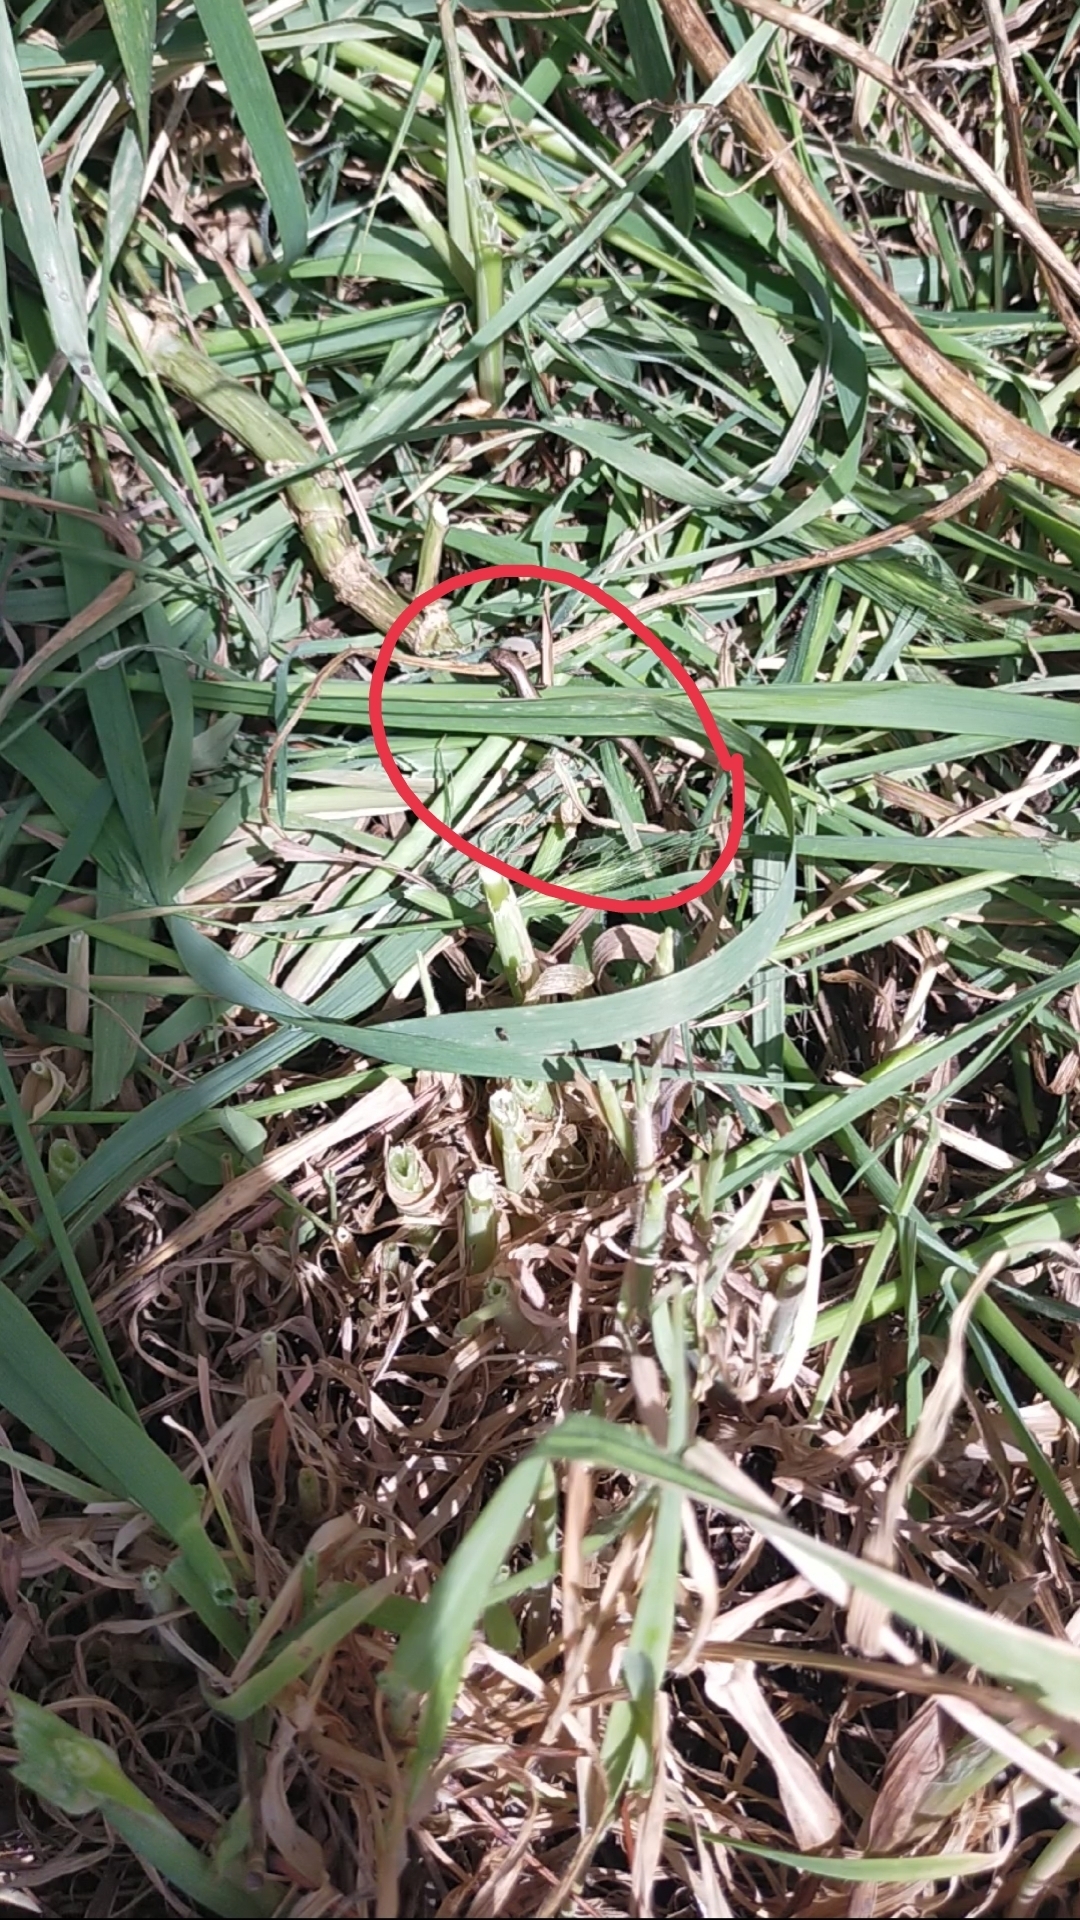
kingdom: Animalia
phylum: Chordata
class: Squamata
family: Scincidae
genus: Ablepharus
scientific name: Ablepharus kitaibelii
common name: Juniper skink
